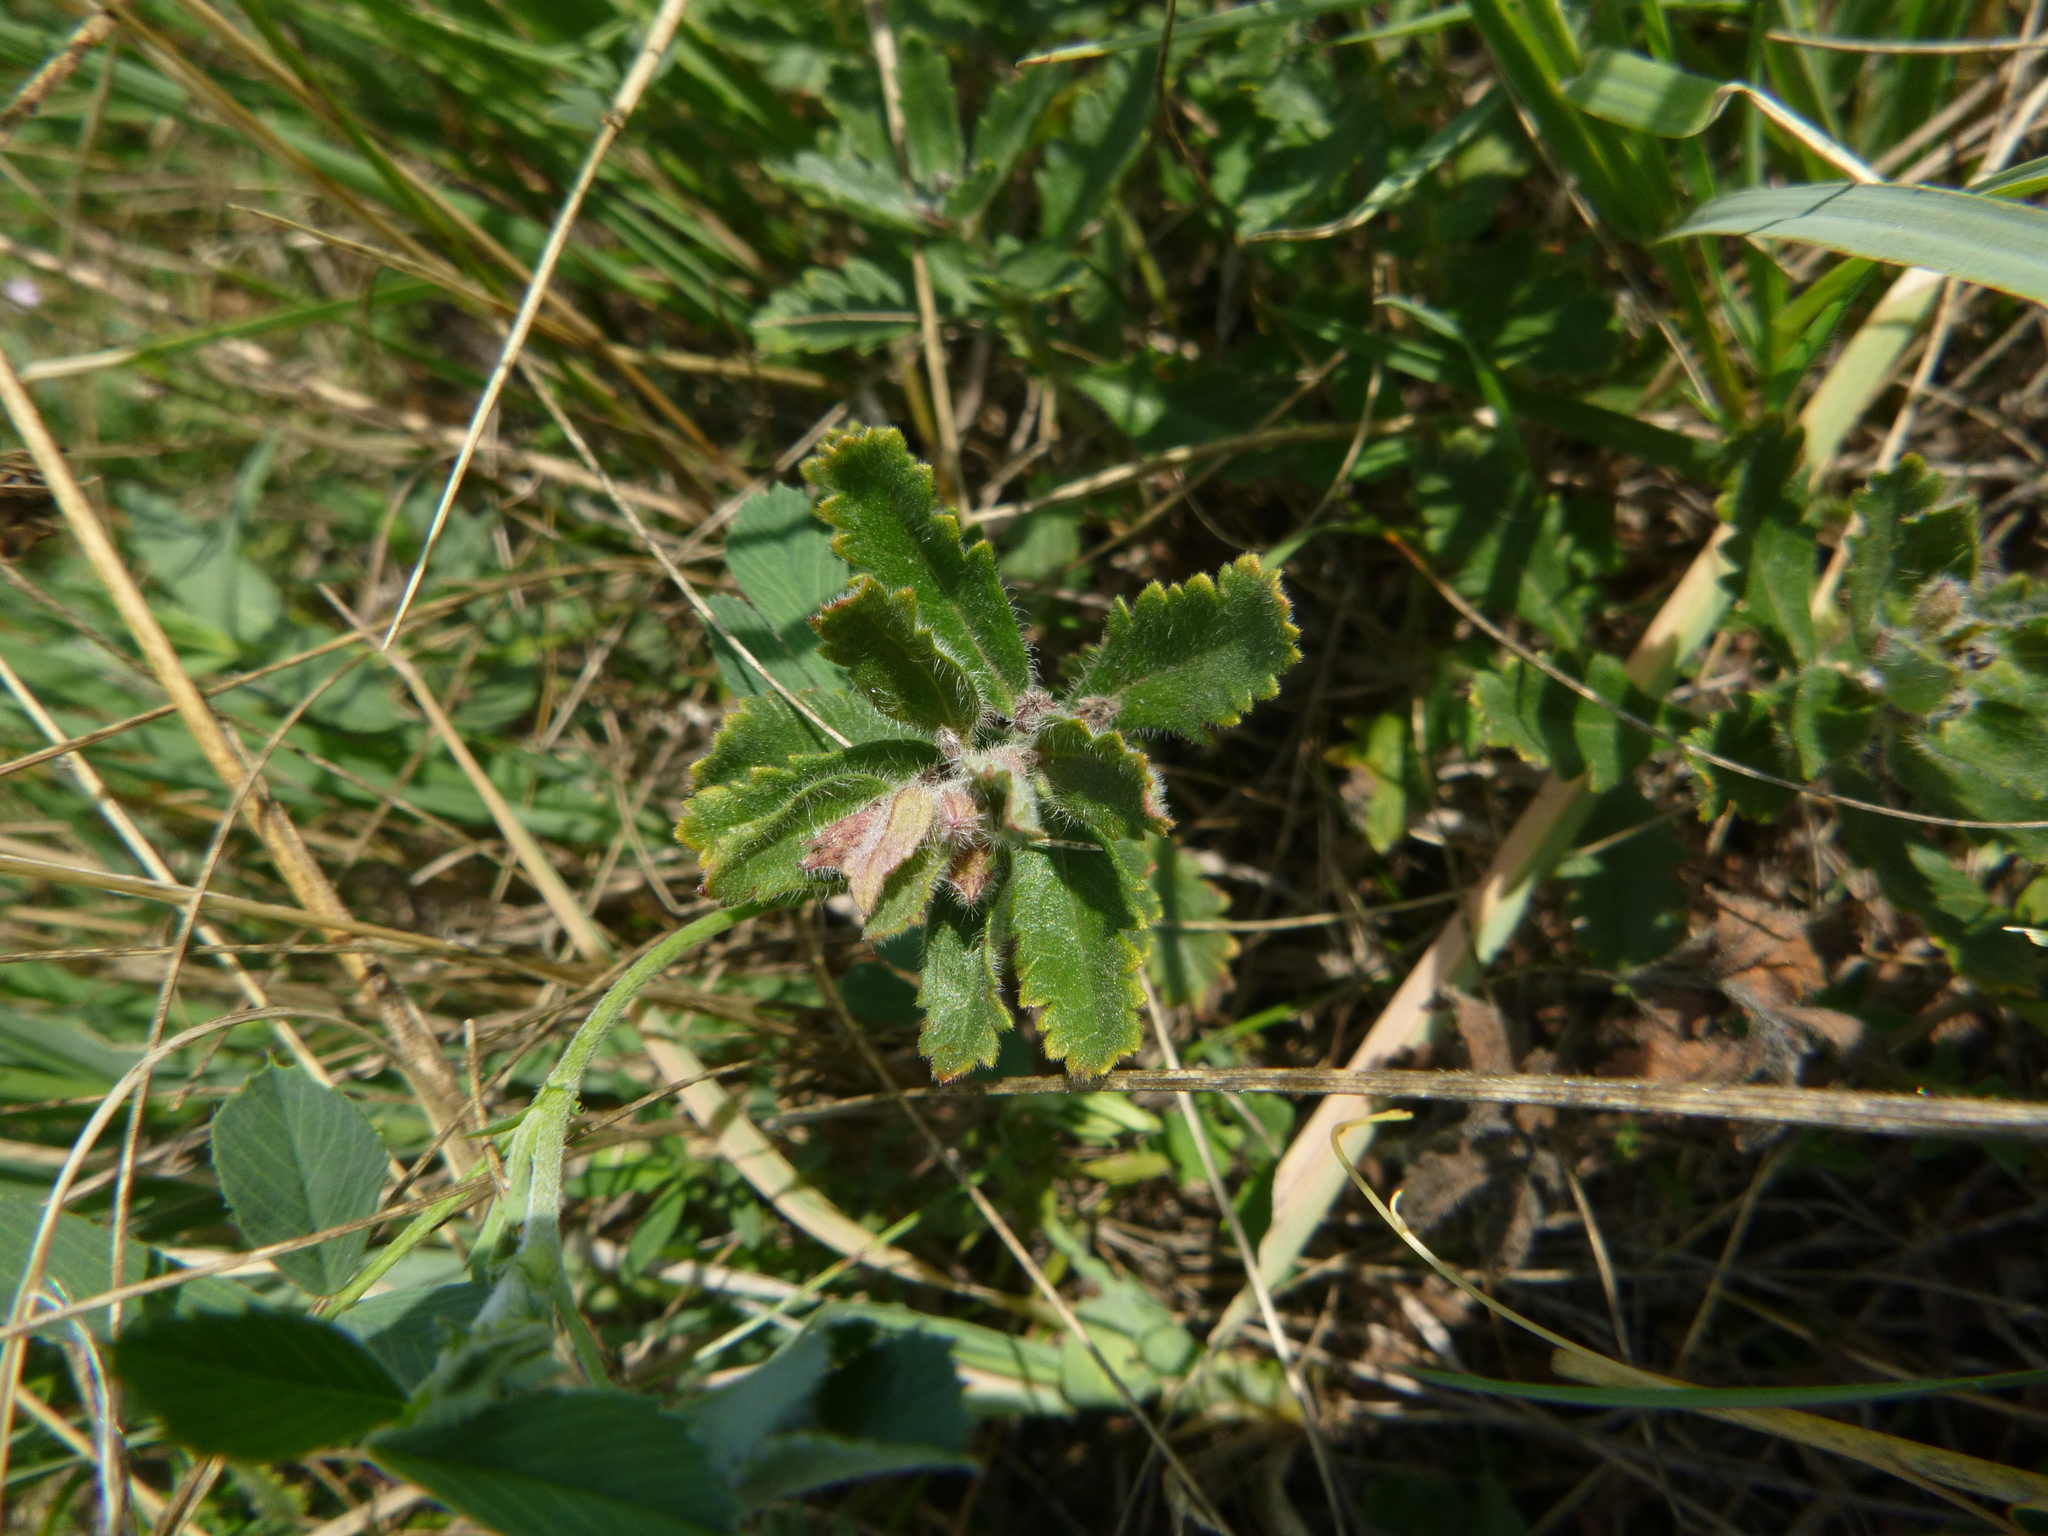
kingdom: Plantae
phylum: Tracheophyta
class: Magnoliopsida
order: Lamiales
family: Lamiaceae
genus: Teucrium
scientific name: Teucrium chamaedrys
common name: Wall germander
